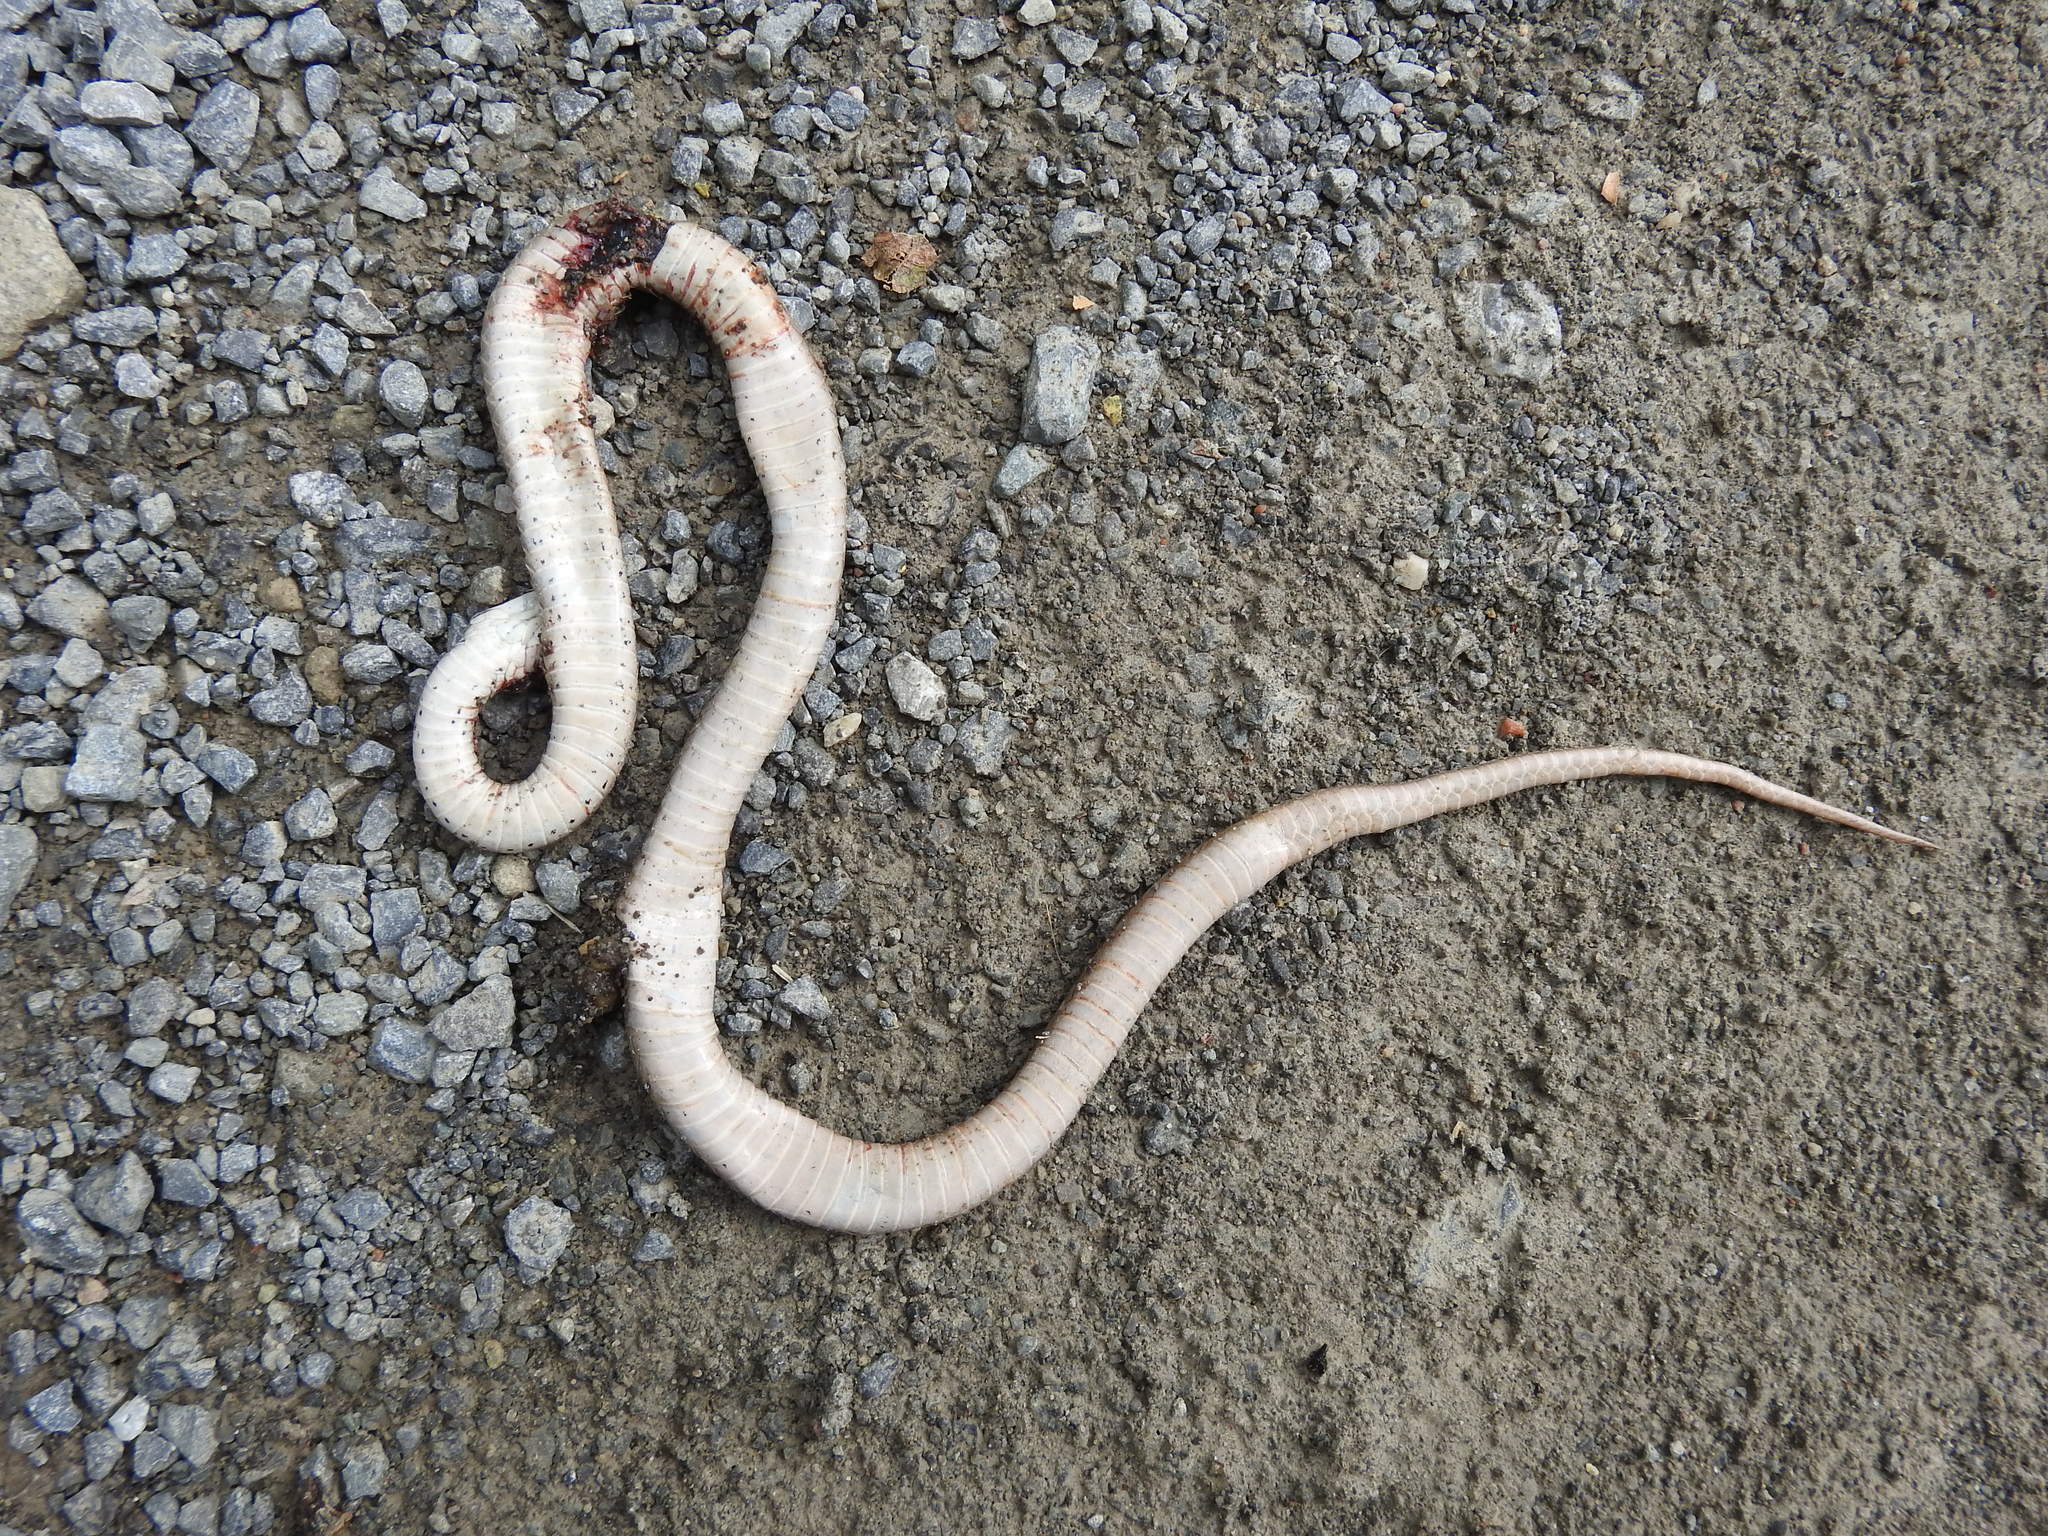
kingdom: Animalia
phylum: Chordata
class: Squamata
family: Colubridae
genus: Storeria
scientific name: Storeria dekayi
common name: (dekay’s) brown snake
